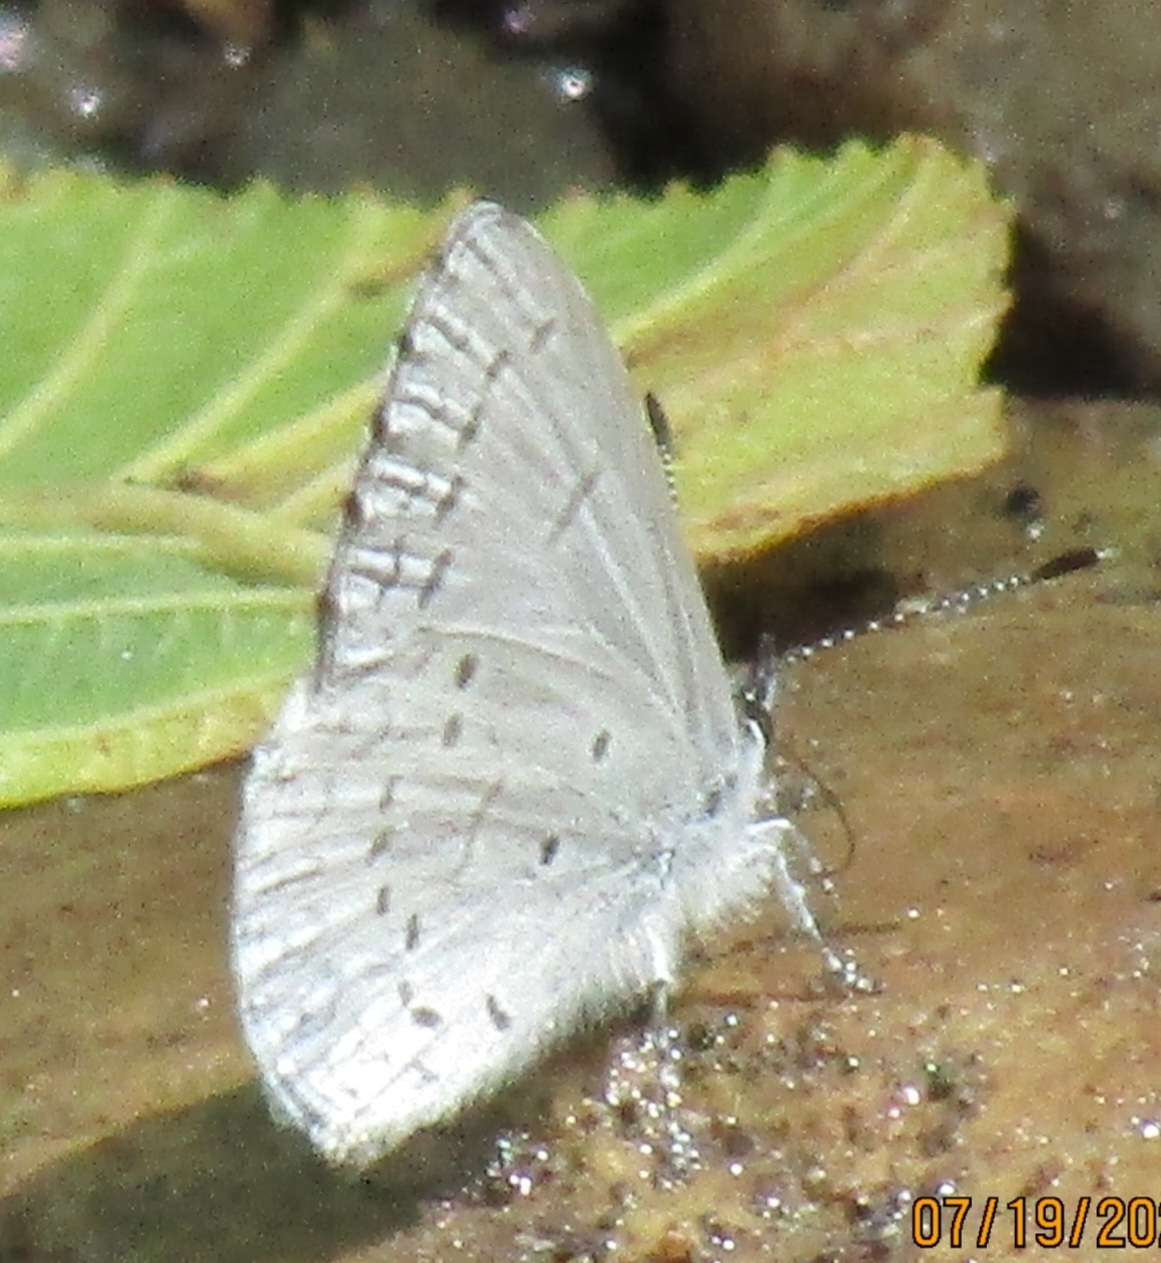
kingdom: Animalia
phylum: Arthropoda
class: Insecta
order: Lepidoptera
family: Lycaenidae
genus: Celastrina
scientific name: Celastrina ladon
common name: Spring azure
